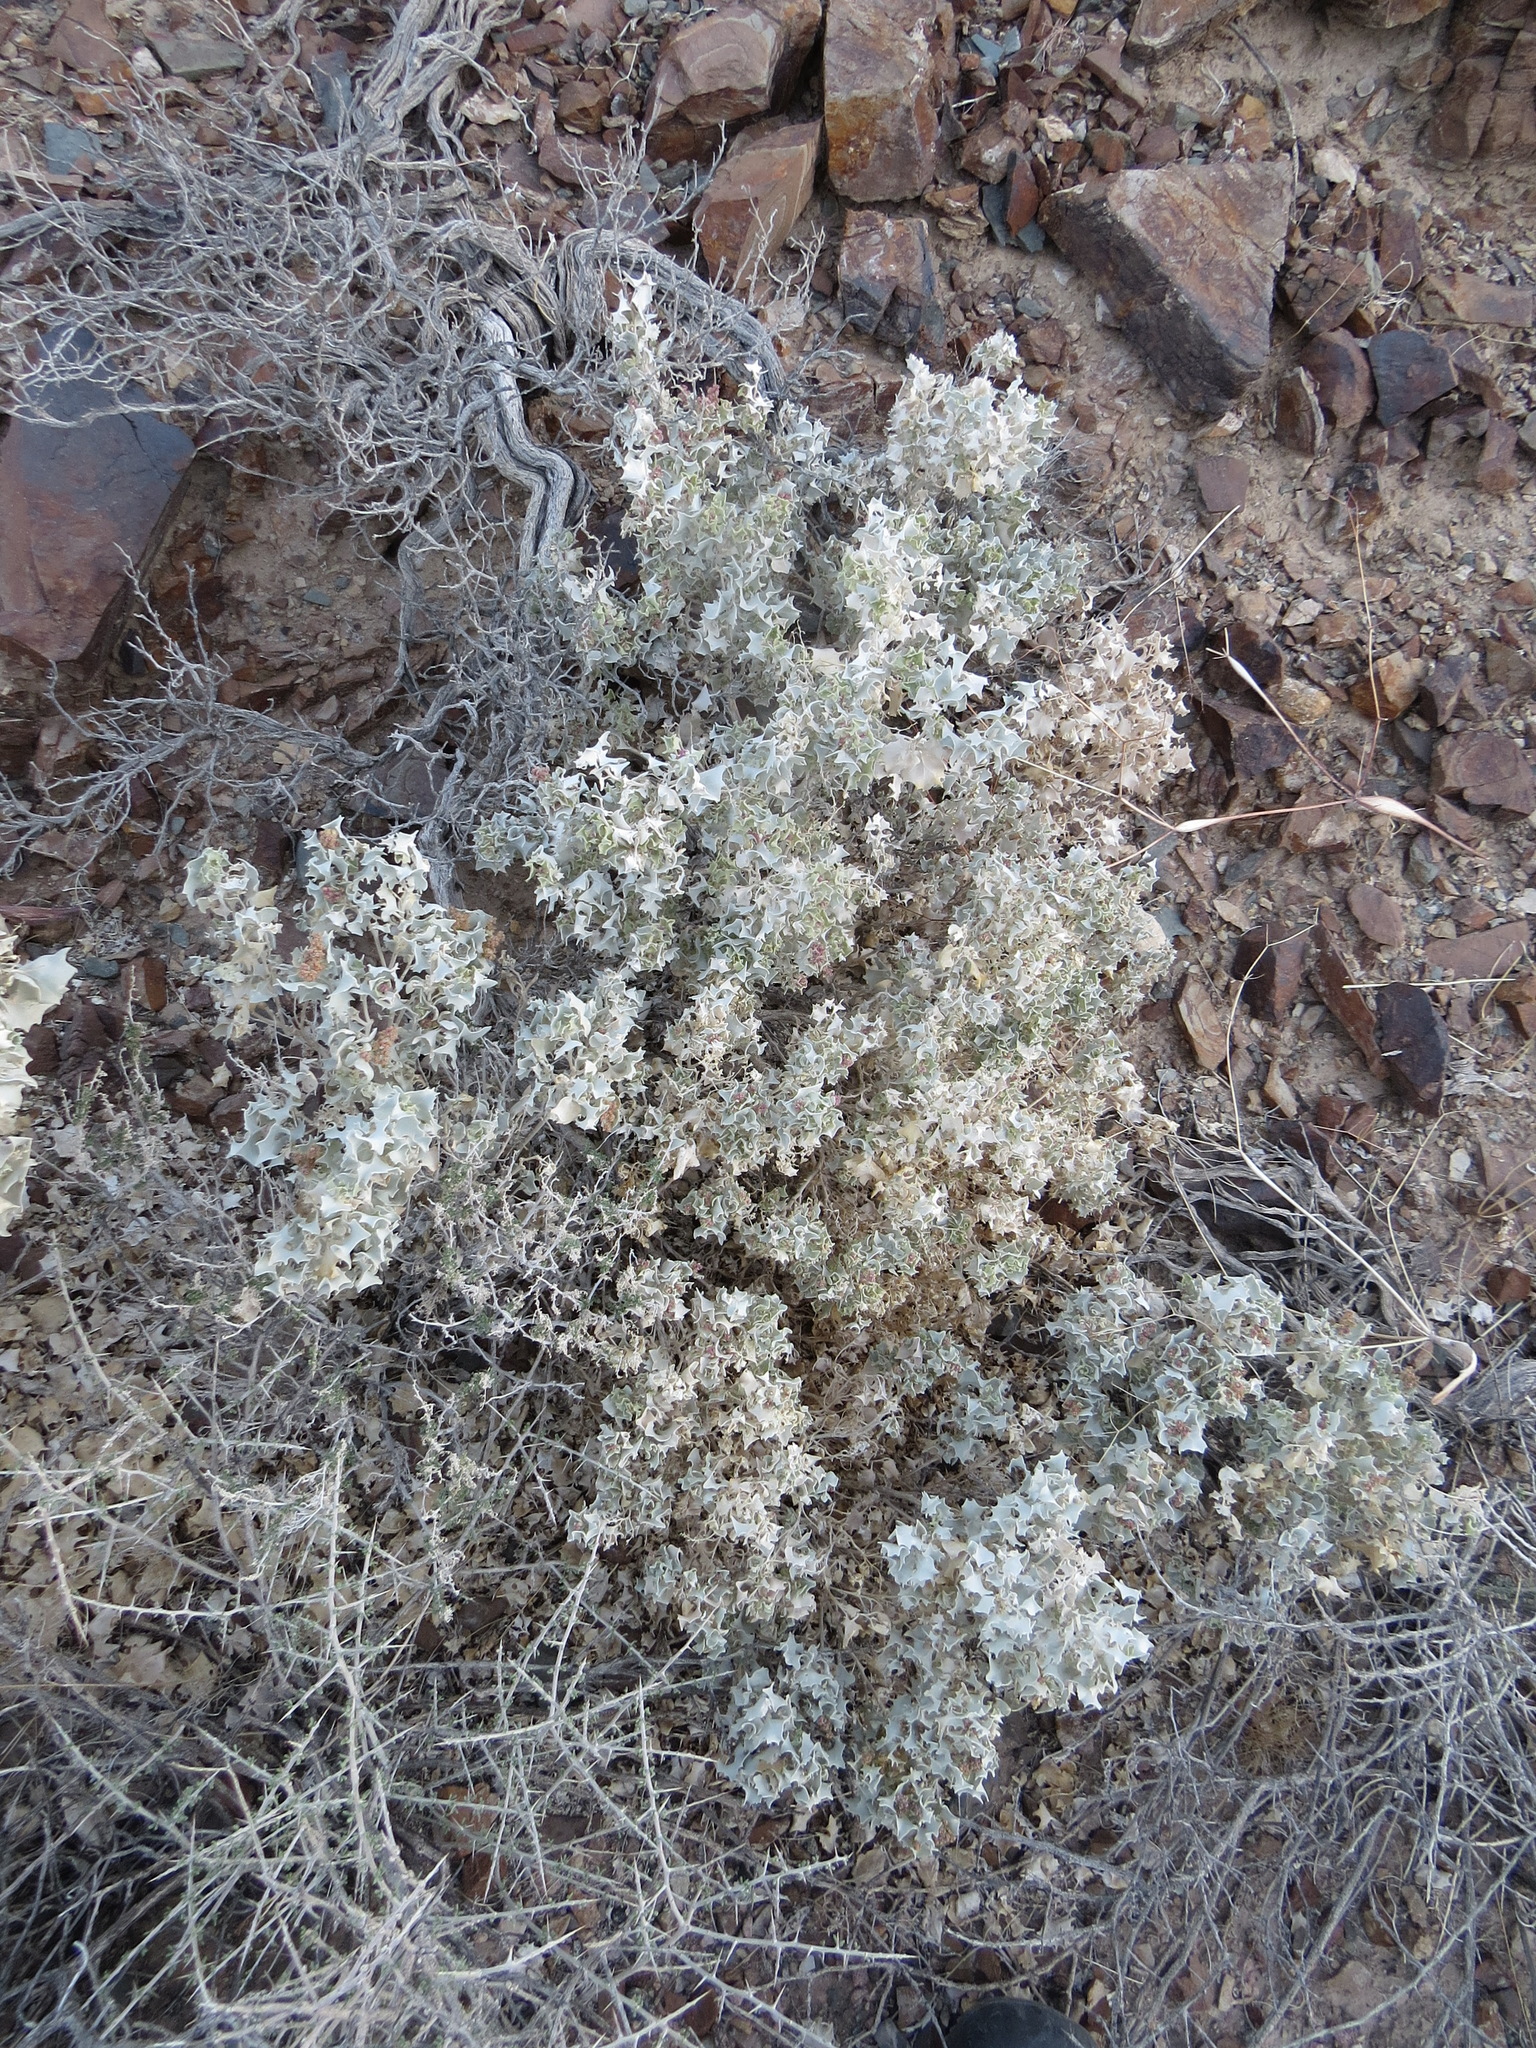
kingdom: Plantae
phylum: Tracheophyta
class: Magnoliopsida
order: Caryophyllales
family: Amaranthaceae
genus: Atriplex
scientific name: Atriplex hymenelytra
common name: Desert-holly
